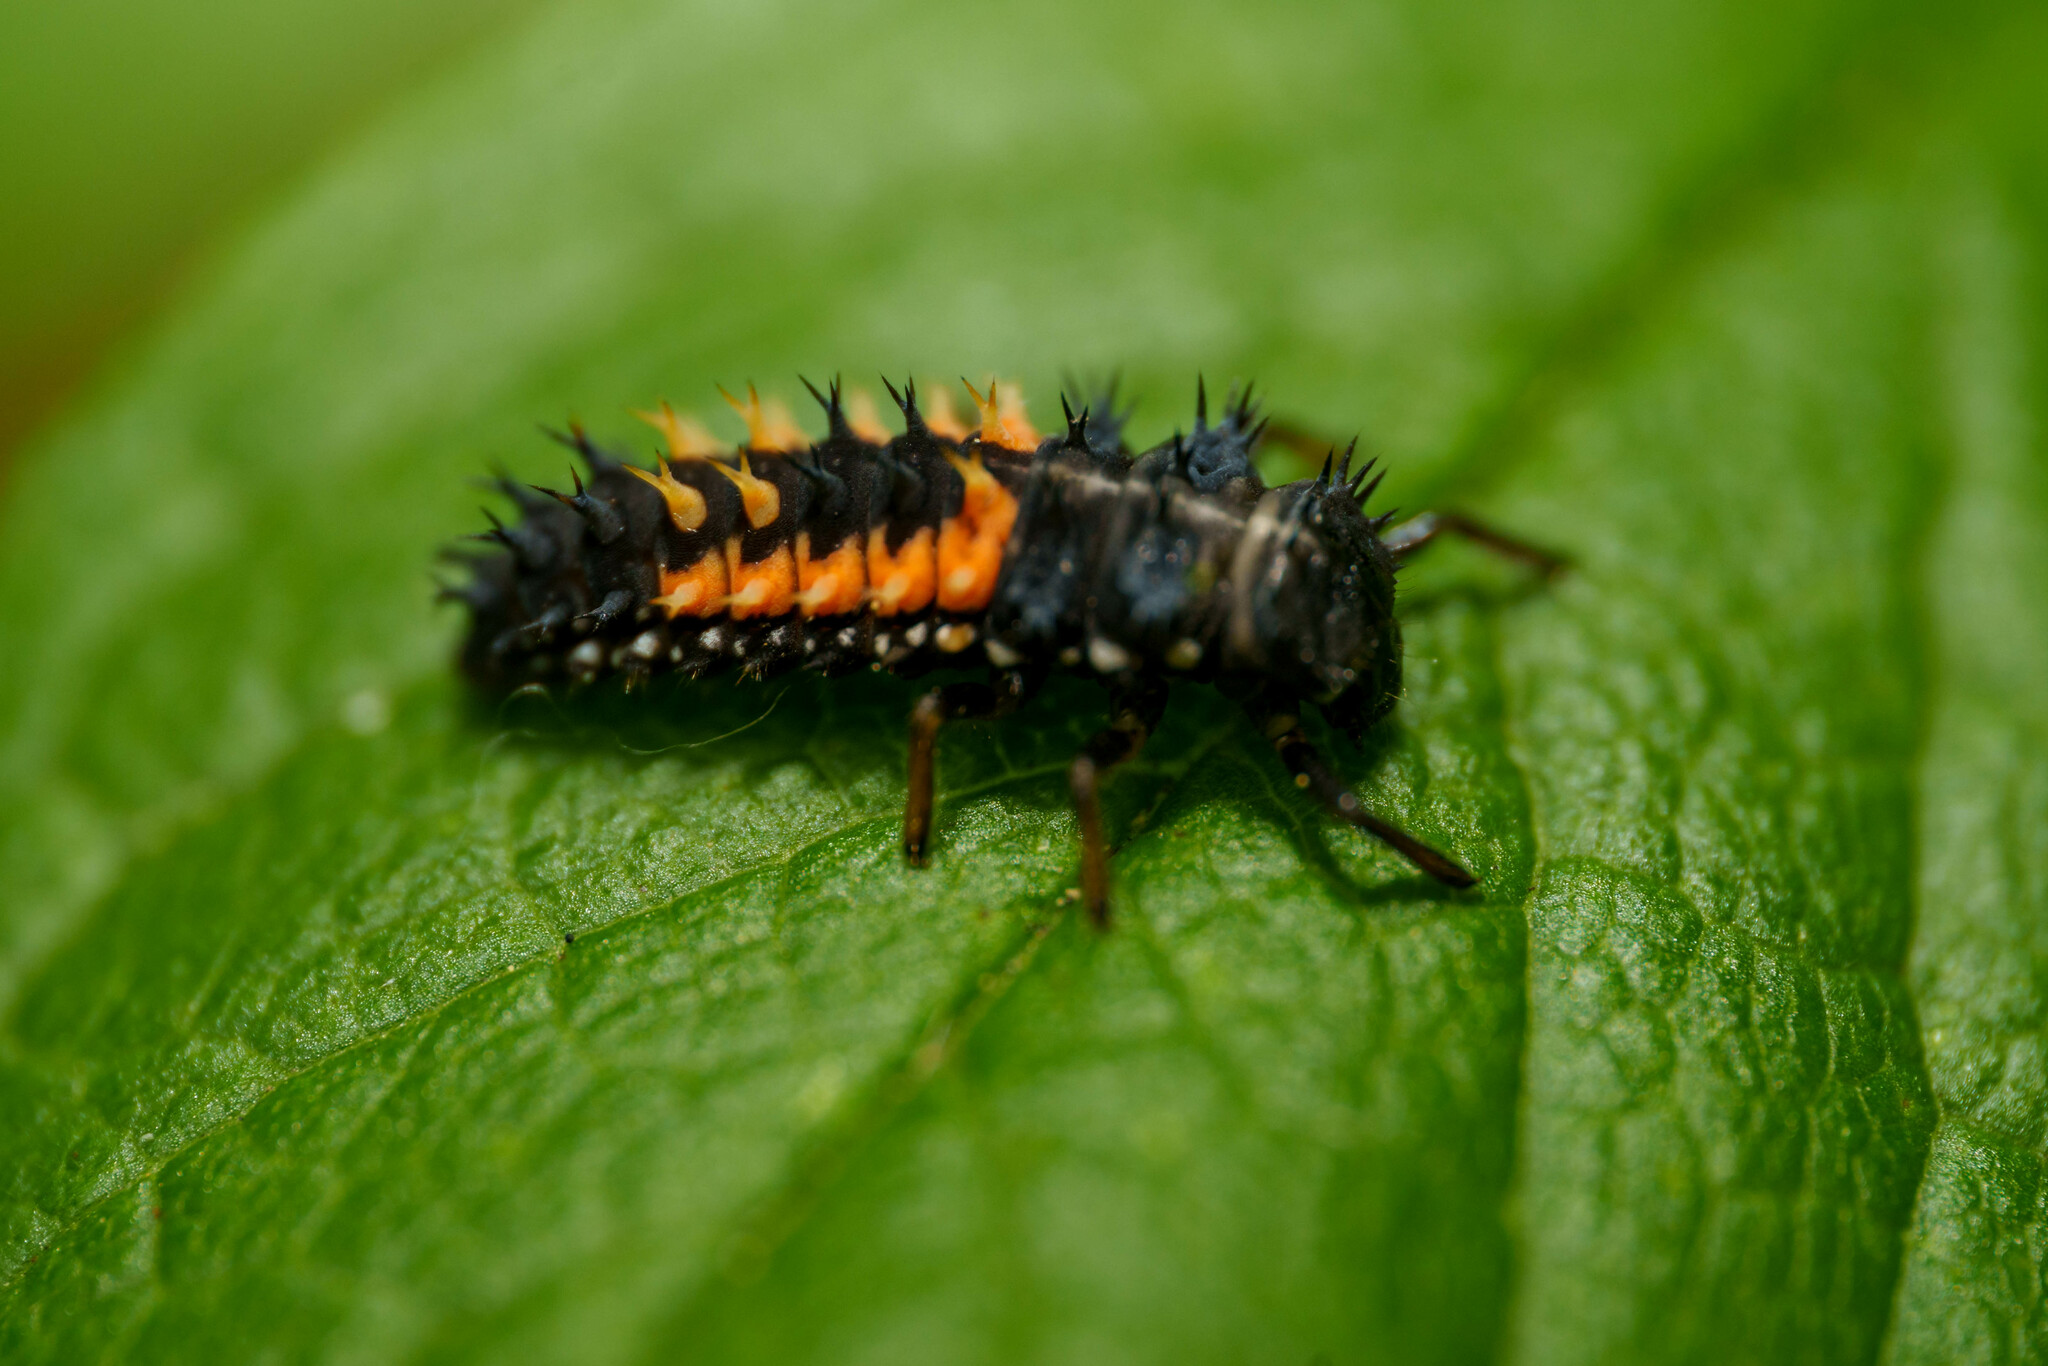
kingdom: Animalia
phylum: Arthropoda
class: Insecta
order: Coleoptera
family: Coccinellidae
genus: Harmonia
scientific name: Harmonia axyridis
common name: Harlequin ladybird
